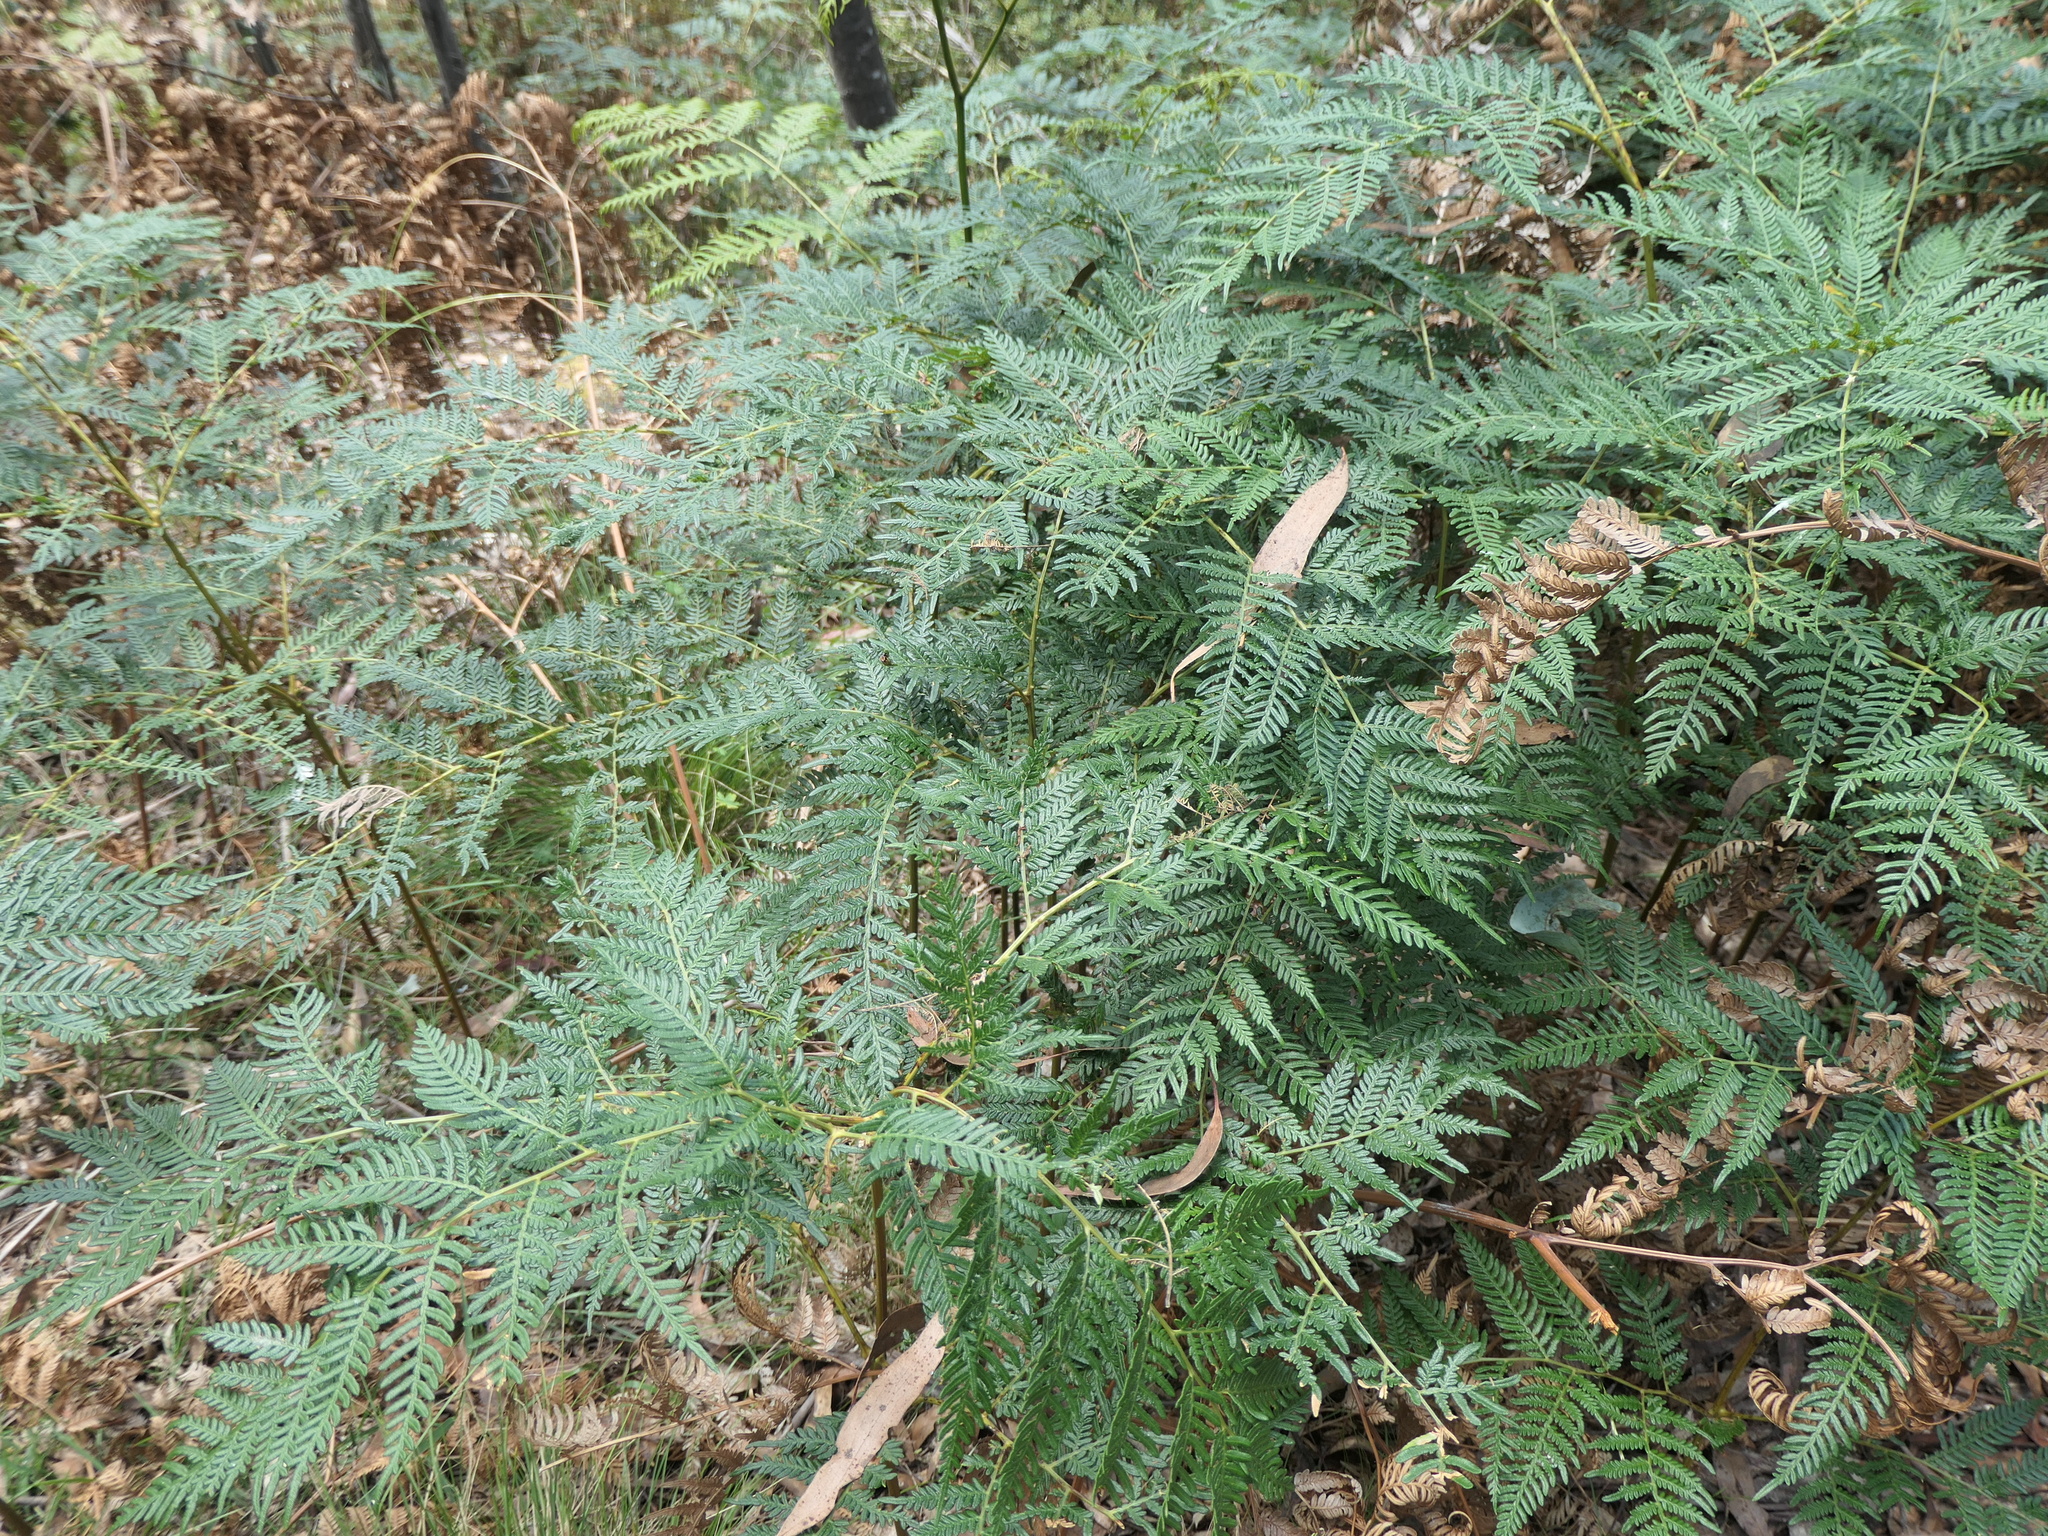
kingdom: Plantae
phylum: Tracheophyta
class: Polypodiopsida
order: Polypodiales
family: Dennstaedtiaceae
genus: Pteridium
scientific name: Pteridium esculentum
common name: Bracken fern
